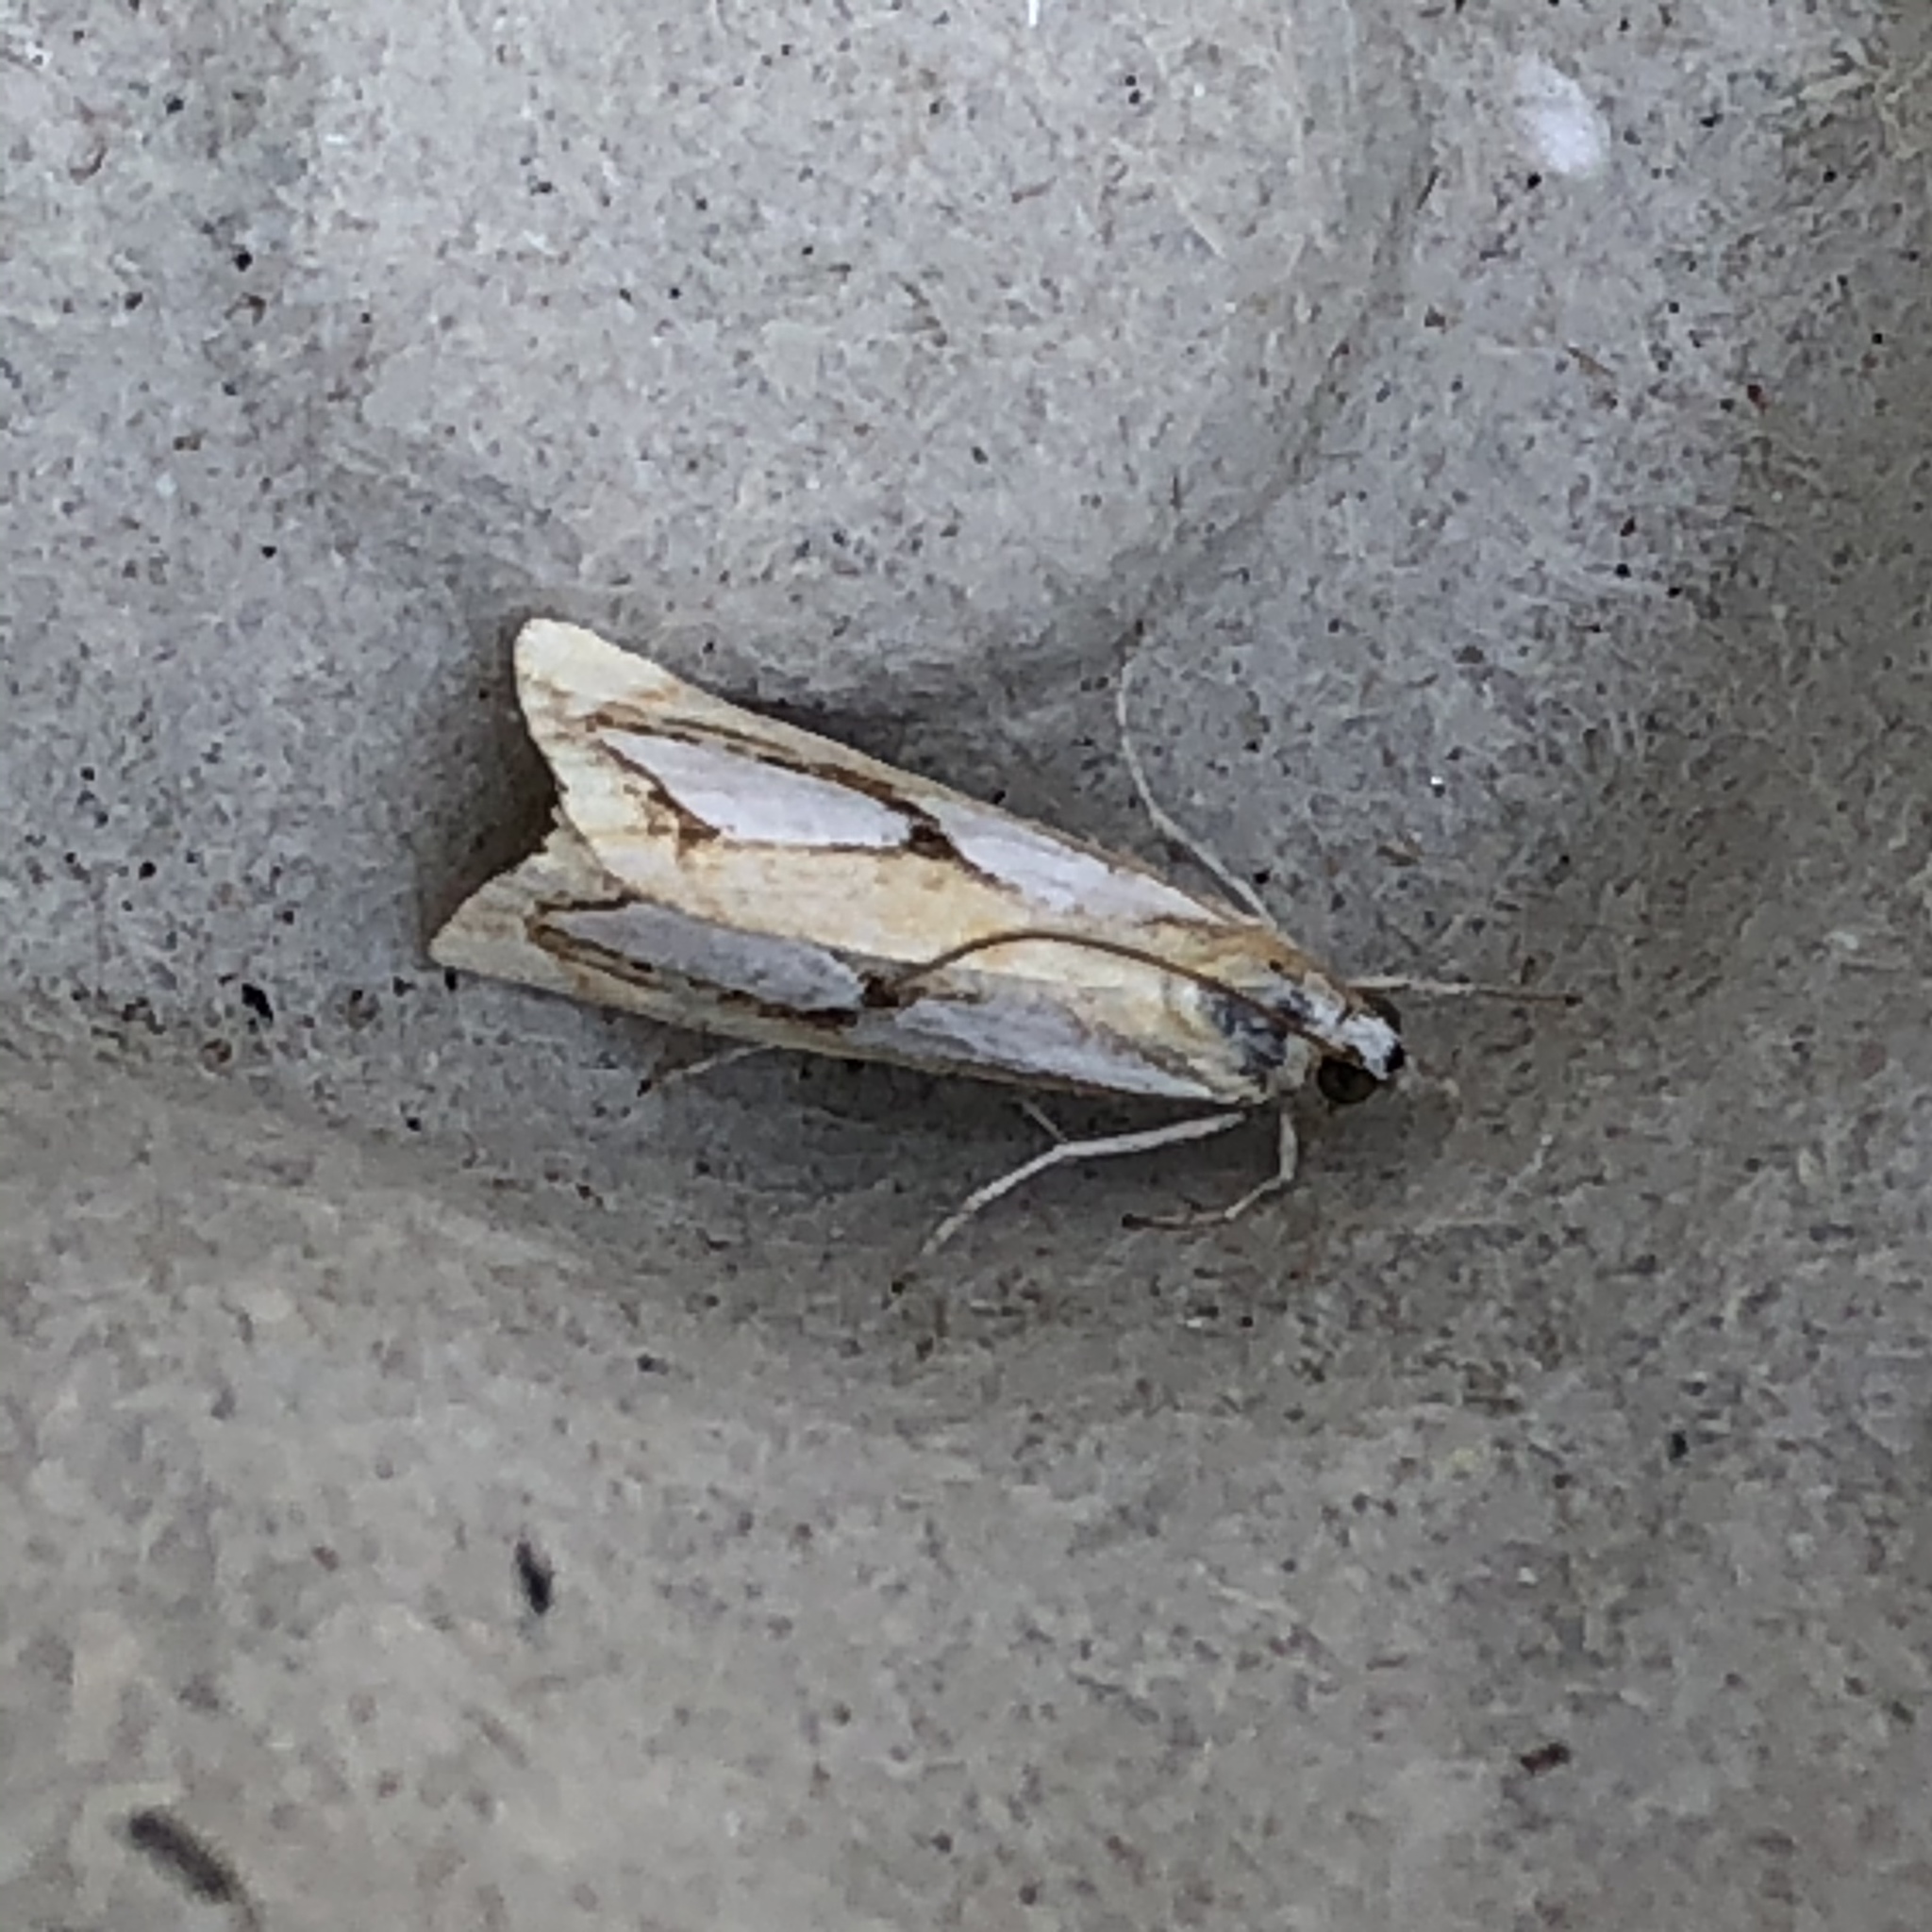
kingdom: Animalia
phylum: Arthropoda
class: Insecta
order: Lepidoptera
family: Crambidae
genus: Catoptria
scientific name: Catoptria pinella
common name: Pearl grass-veneer
